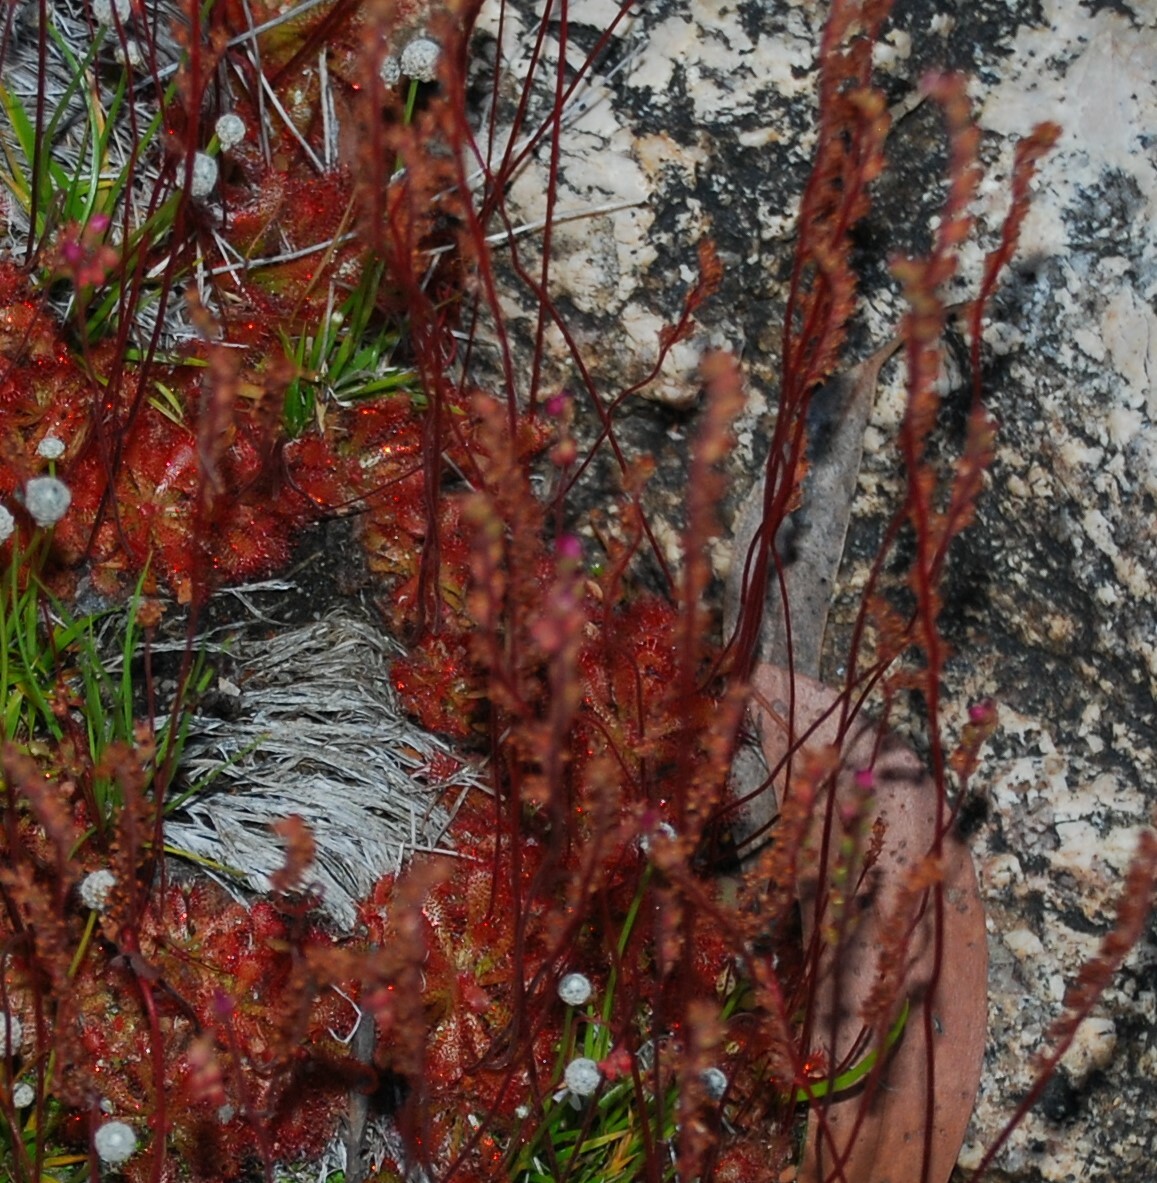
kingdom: Plantae
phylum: Tracheophyta
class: Magnoliopsida
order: Caryophyllales
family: Droseraceae
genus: Drosera
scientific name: Drosera spatulata
